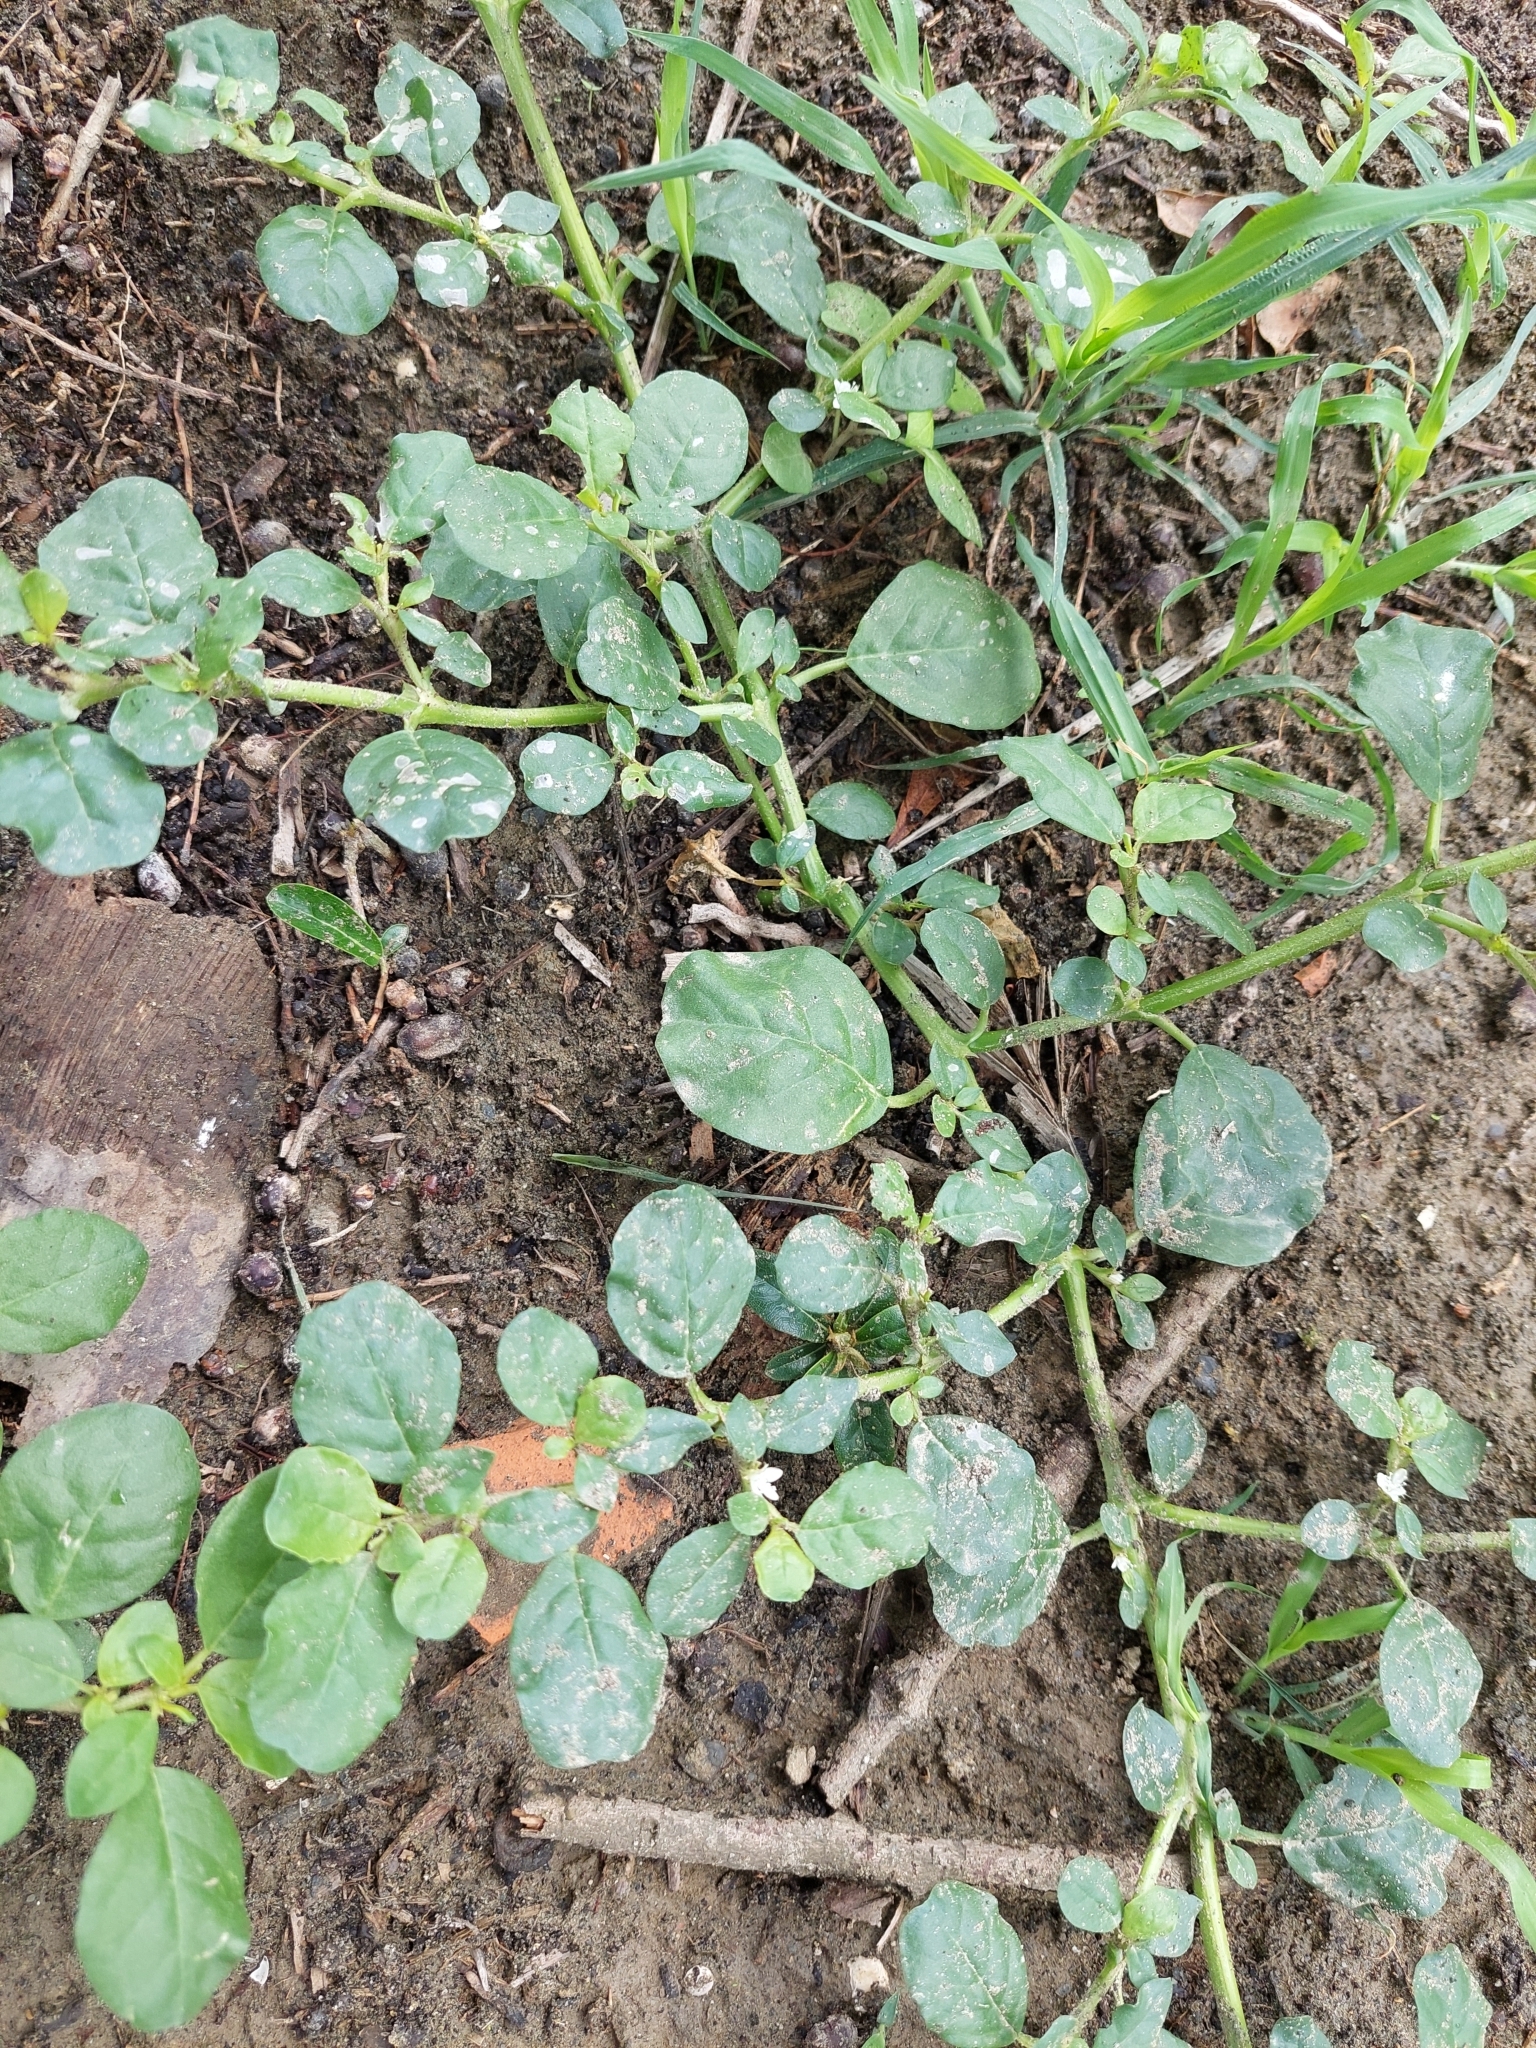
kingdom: Plantae
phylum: Tracheophyta
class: Magnoliopsida
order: Caryophyllales
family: Aizoaceae
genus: Trianthema
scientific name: Trianthema portulacastrum
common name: Desert horsepurslane
